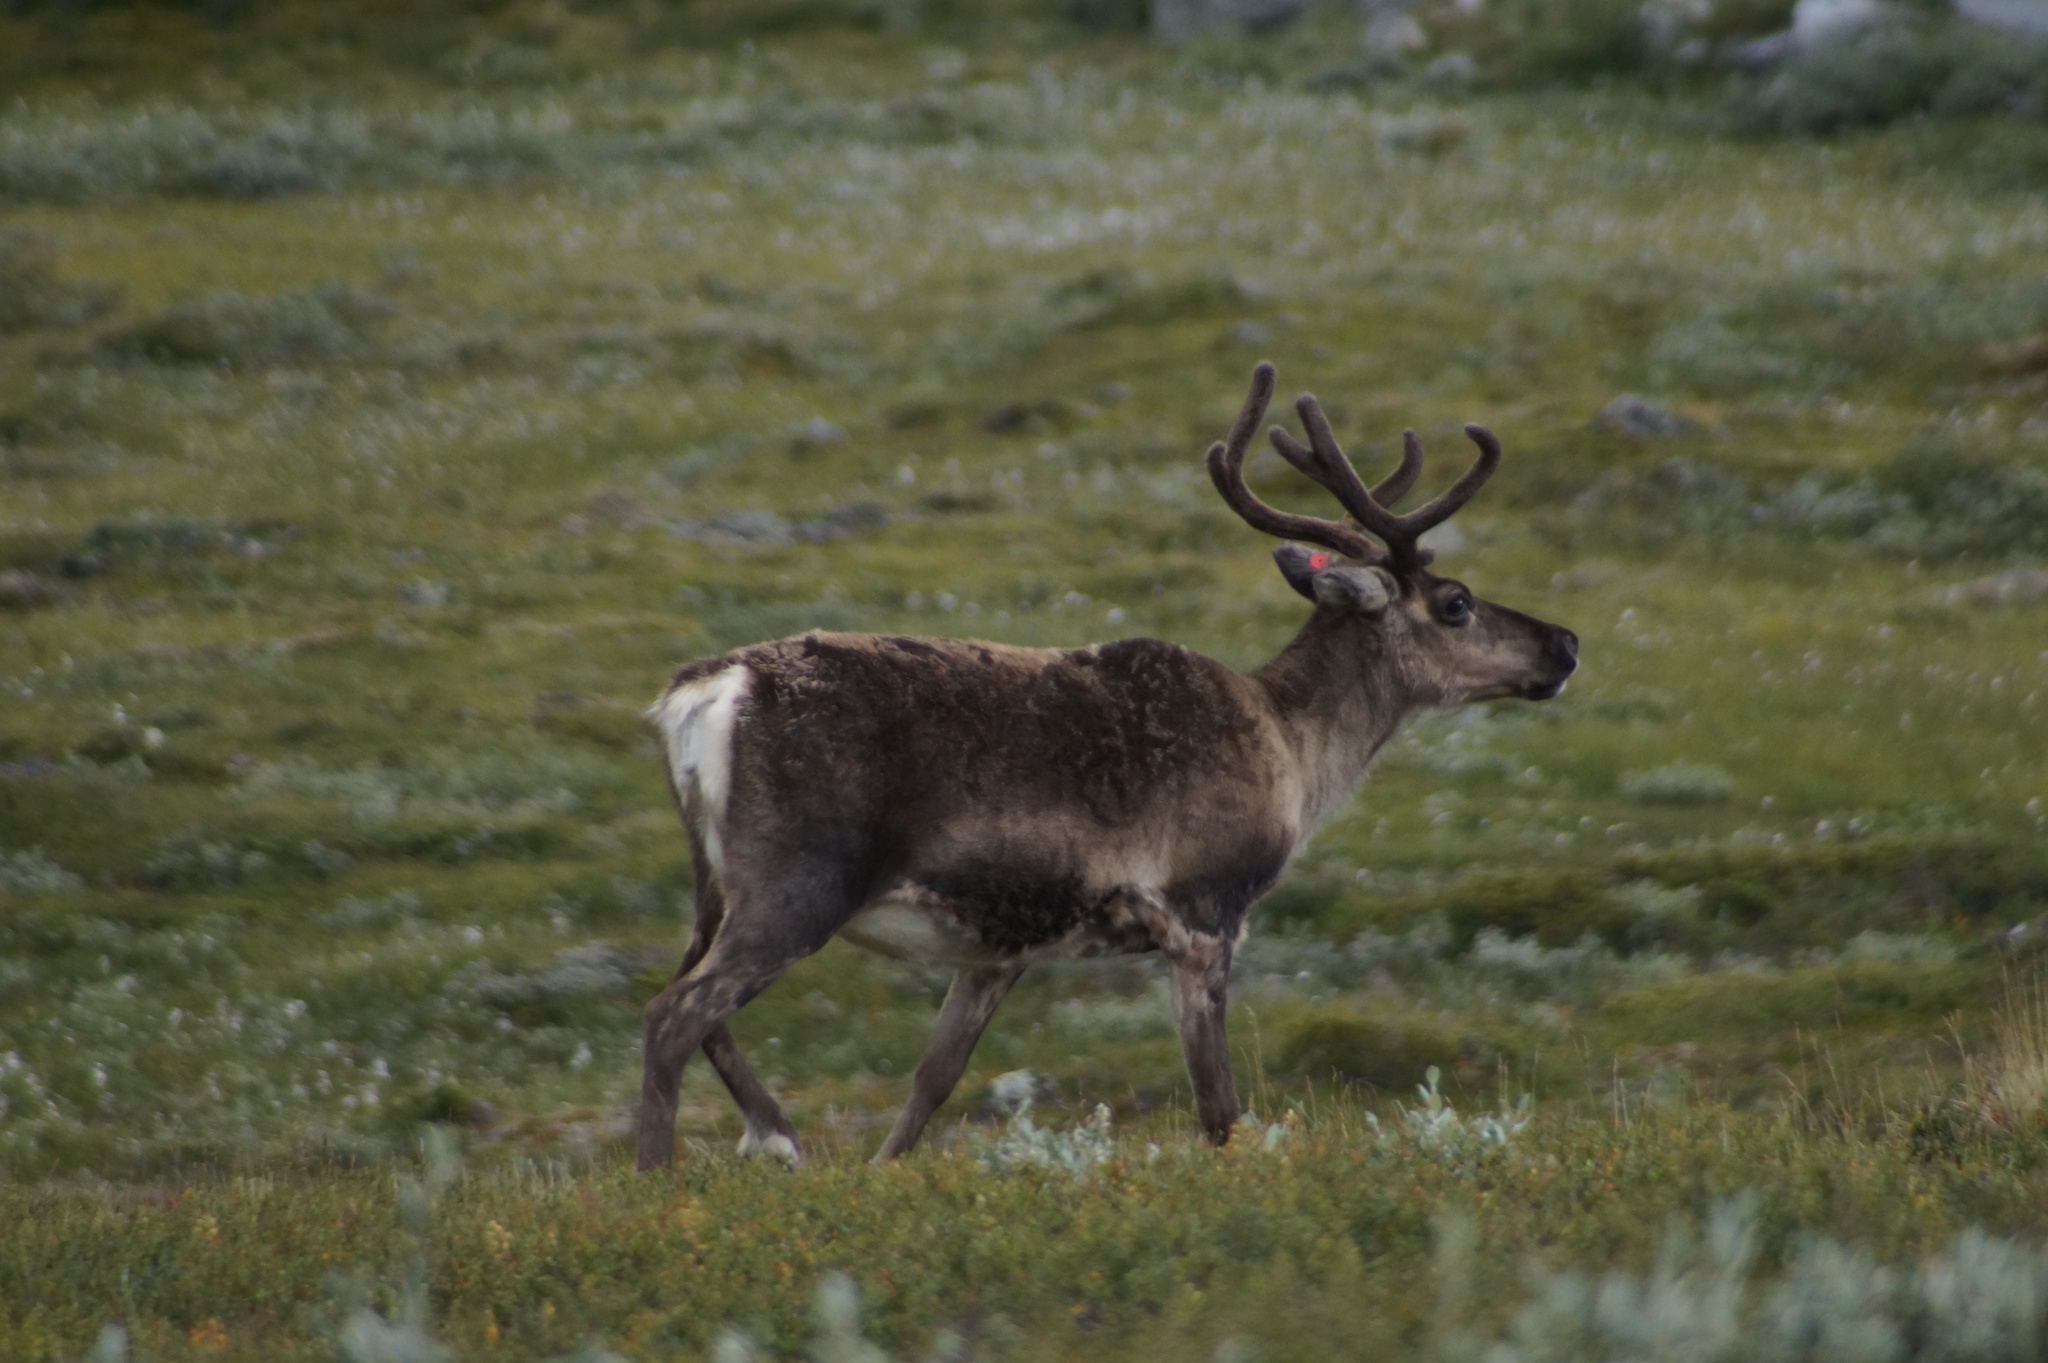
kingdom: Animalia
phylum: Chordata
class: Mammalia
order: Artiodactyla
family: Cervidae
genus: Rangifer
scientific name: Rangifer tarandus
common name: Reindeer
